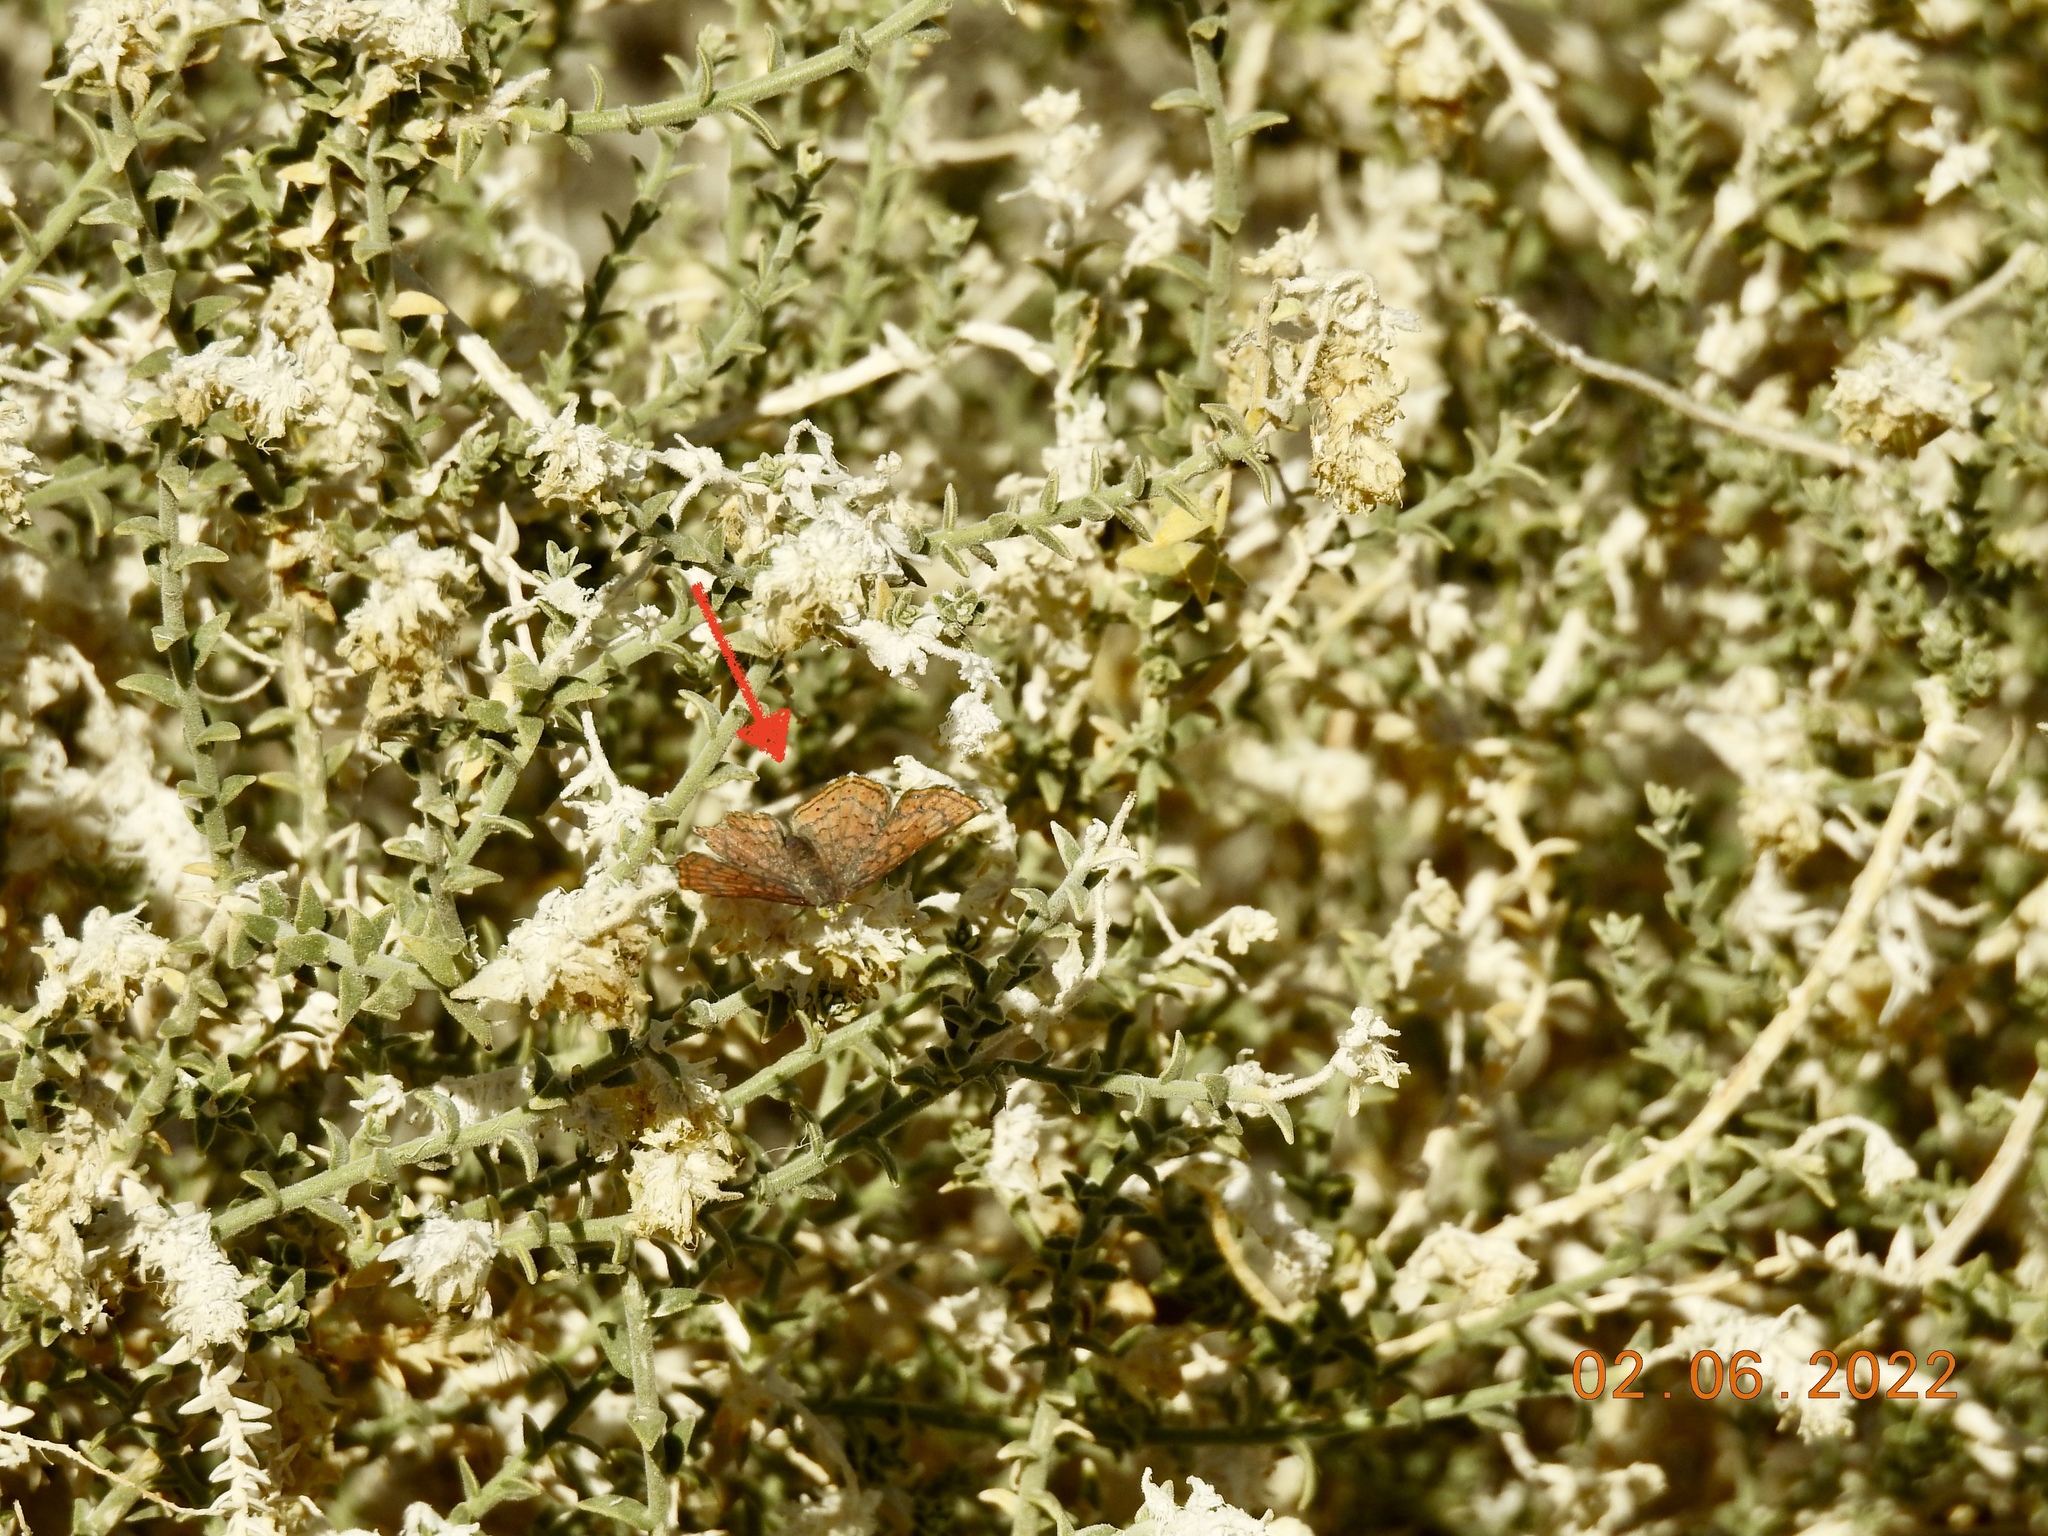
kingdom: Animalia
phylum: Arthropoda
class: Insecta
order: Lepidoptera
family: Lycaenidae
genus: Emesis
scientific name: Emesis wrighti
